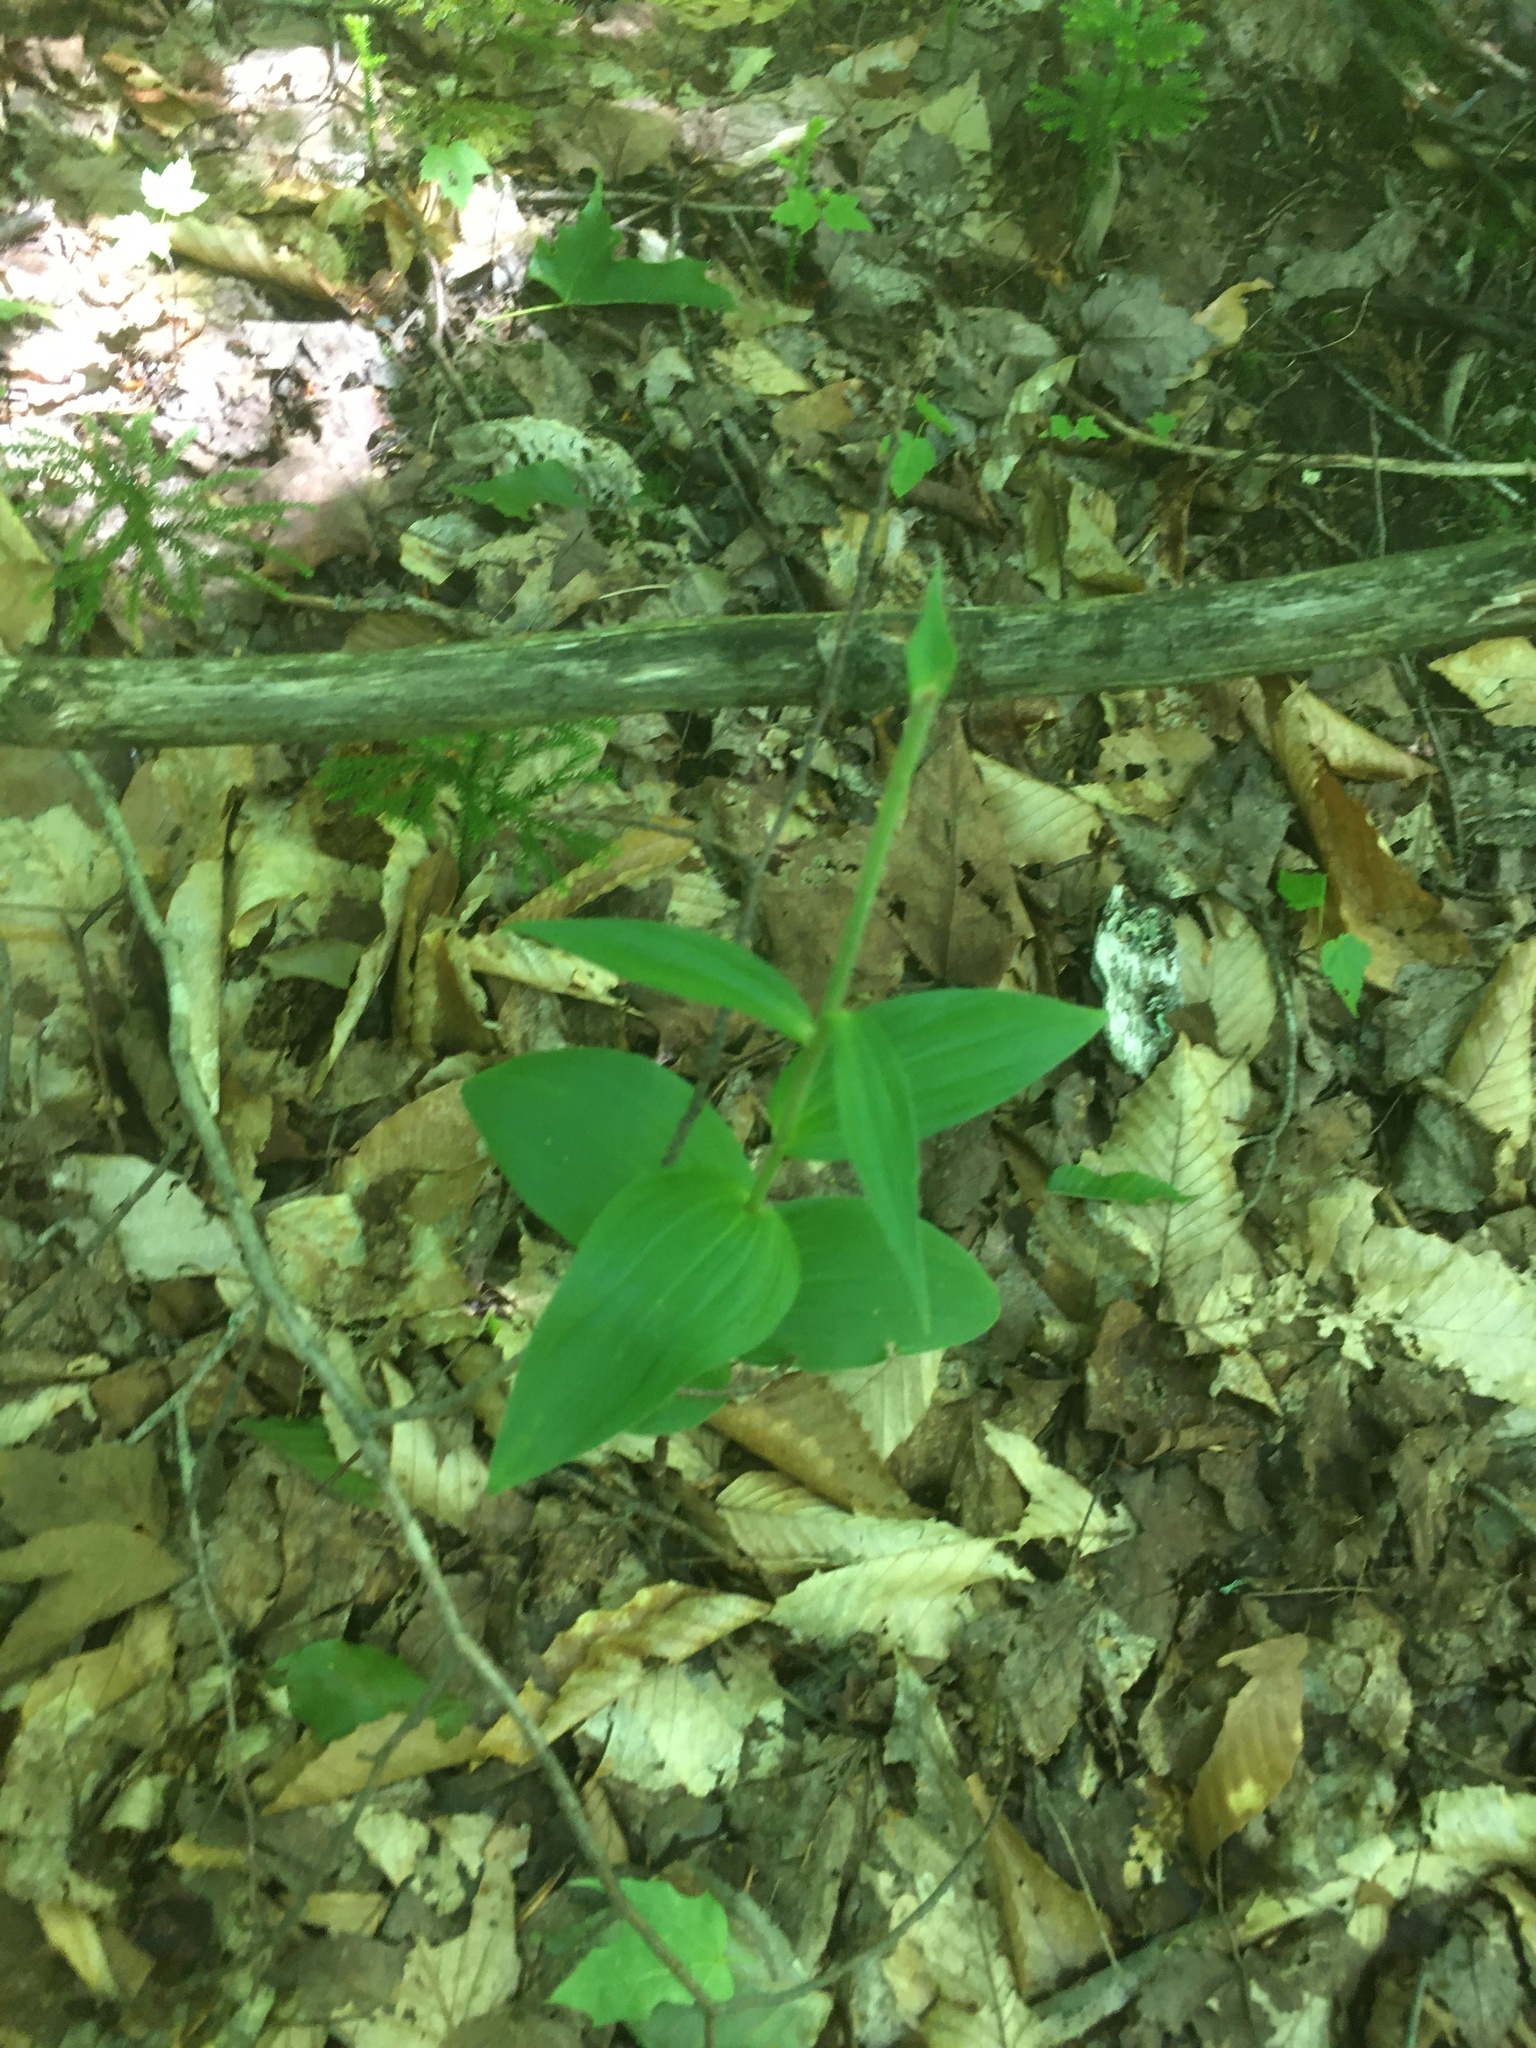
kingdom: Plantae
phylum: Tracheophyta
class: Liliopsida
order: Asparagales
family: Orchidaceae
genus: Epipactis
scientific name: Epipactis helleborine
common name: Broad-leaved helleborine
